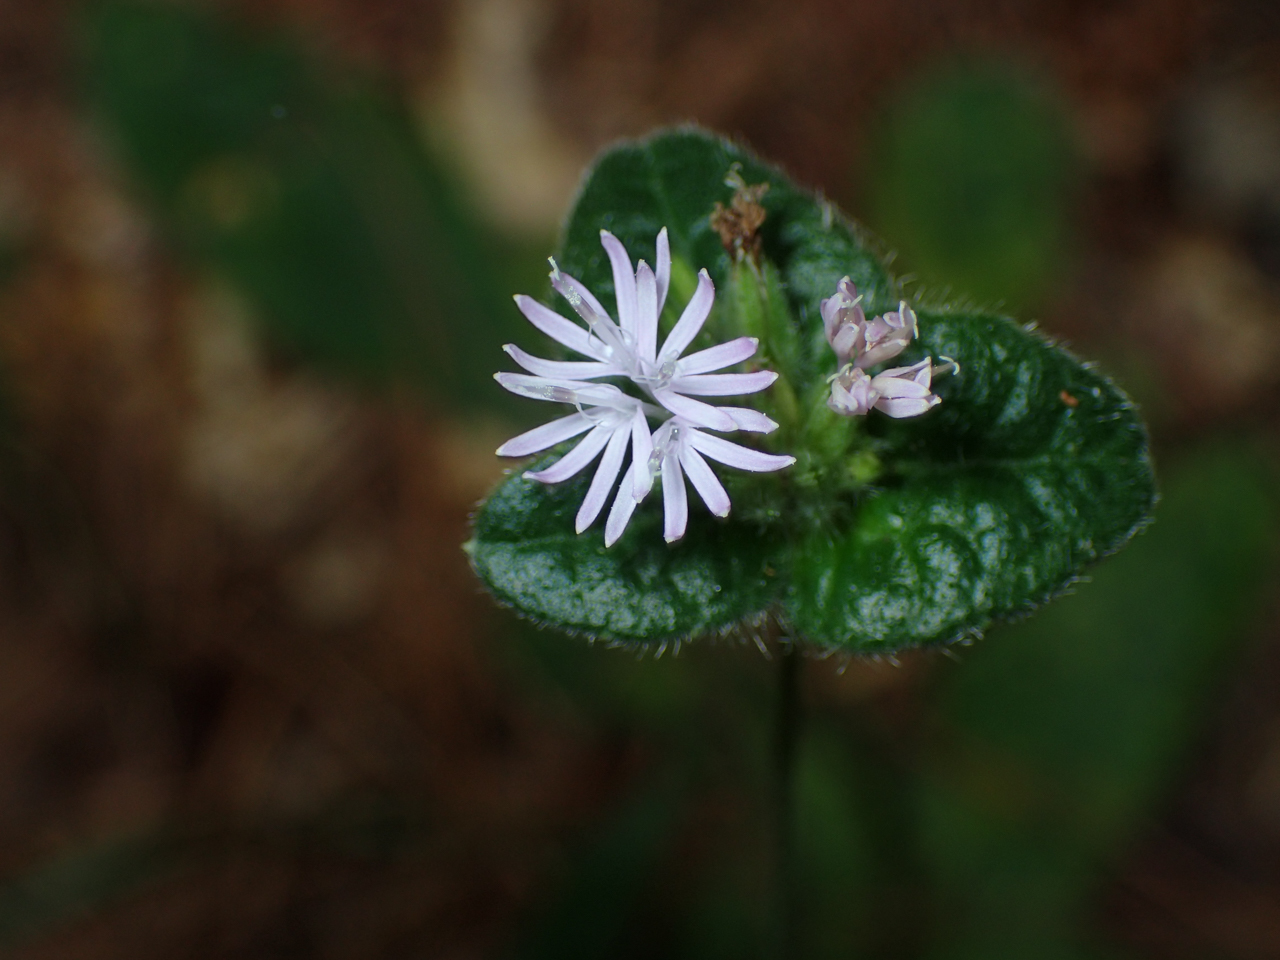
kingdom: Plantae
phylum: Tracheophyta
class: Magnoliopsida
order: Asterales
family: Asteraceae
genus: Elephantopus
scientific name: Elephantopus tomentosus
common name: Tobacco-weed
